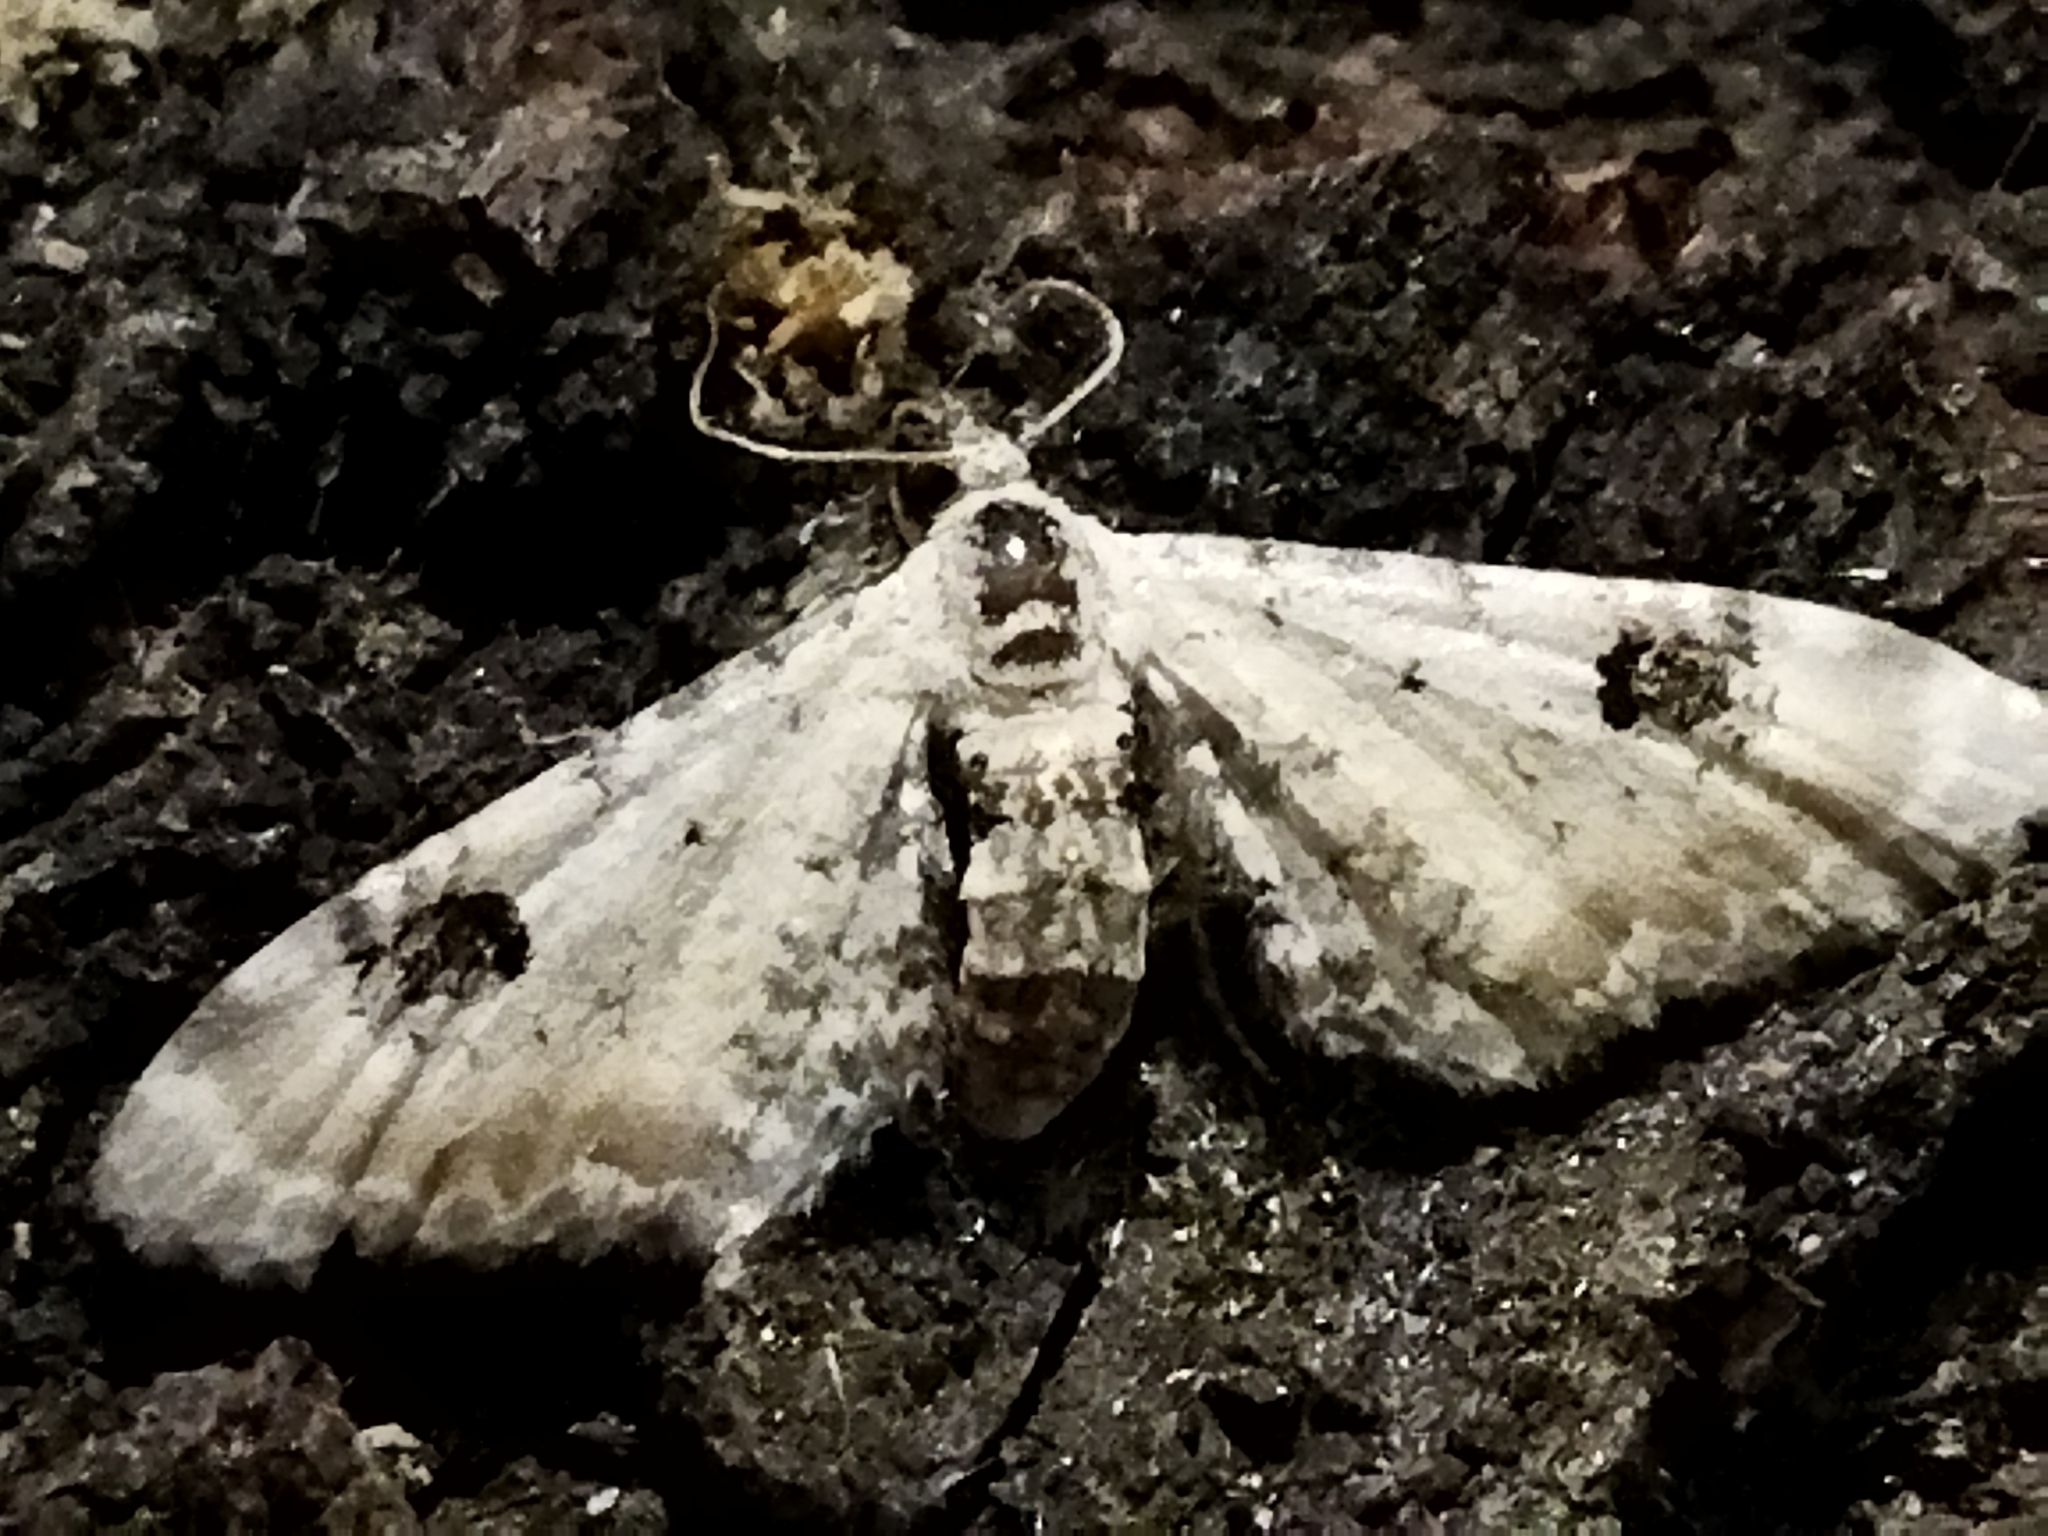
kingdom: Animalia
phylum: Arthropoda
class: Insecta
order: Lepidoptera
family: Geometridae
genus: Eupithecia
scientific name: Eupithecia centaureata
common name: Lime-speck pug
